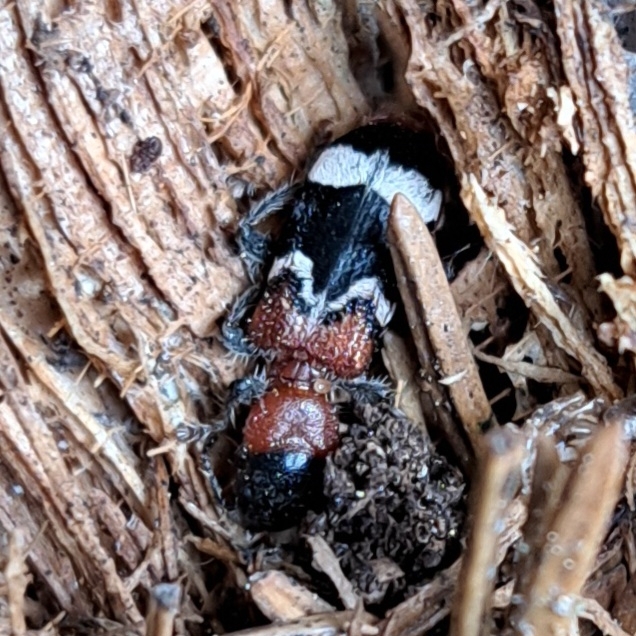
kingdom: Animalia
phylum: Arthropoda
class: Insecta
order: Coleoptera
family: Cleridae
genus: Thanasimus
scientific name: Thanasimus formicarius
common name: Ant beetle
